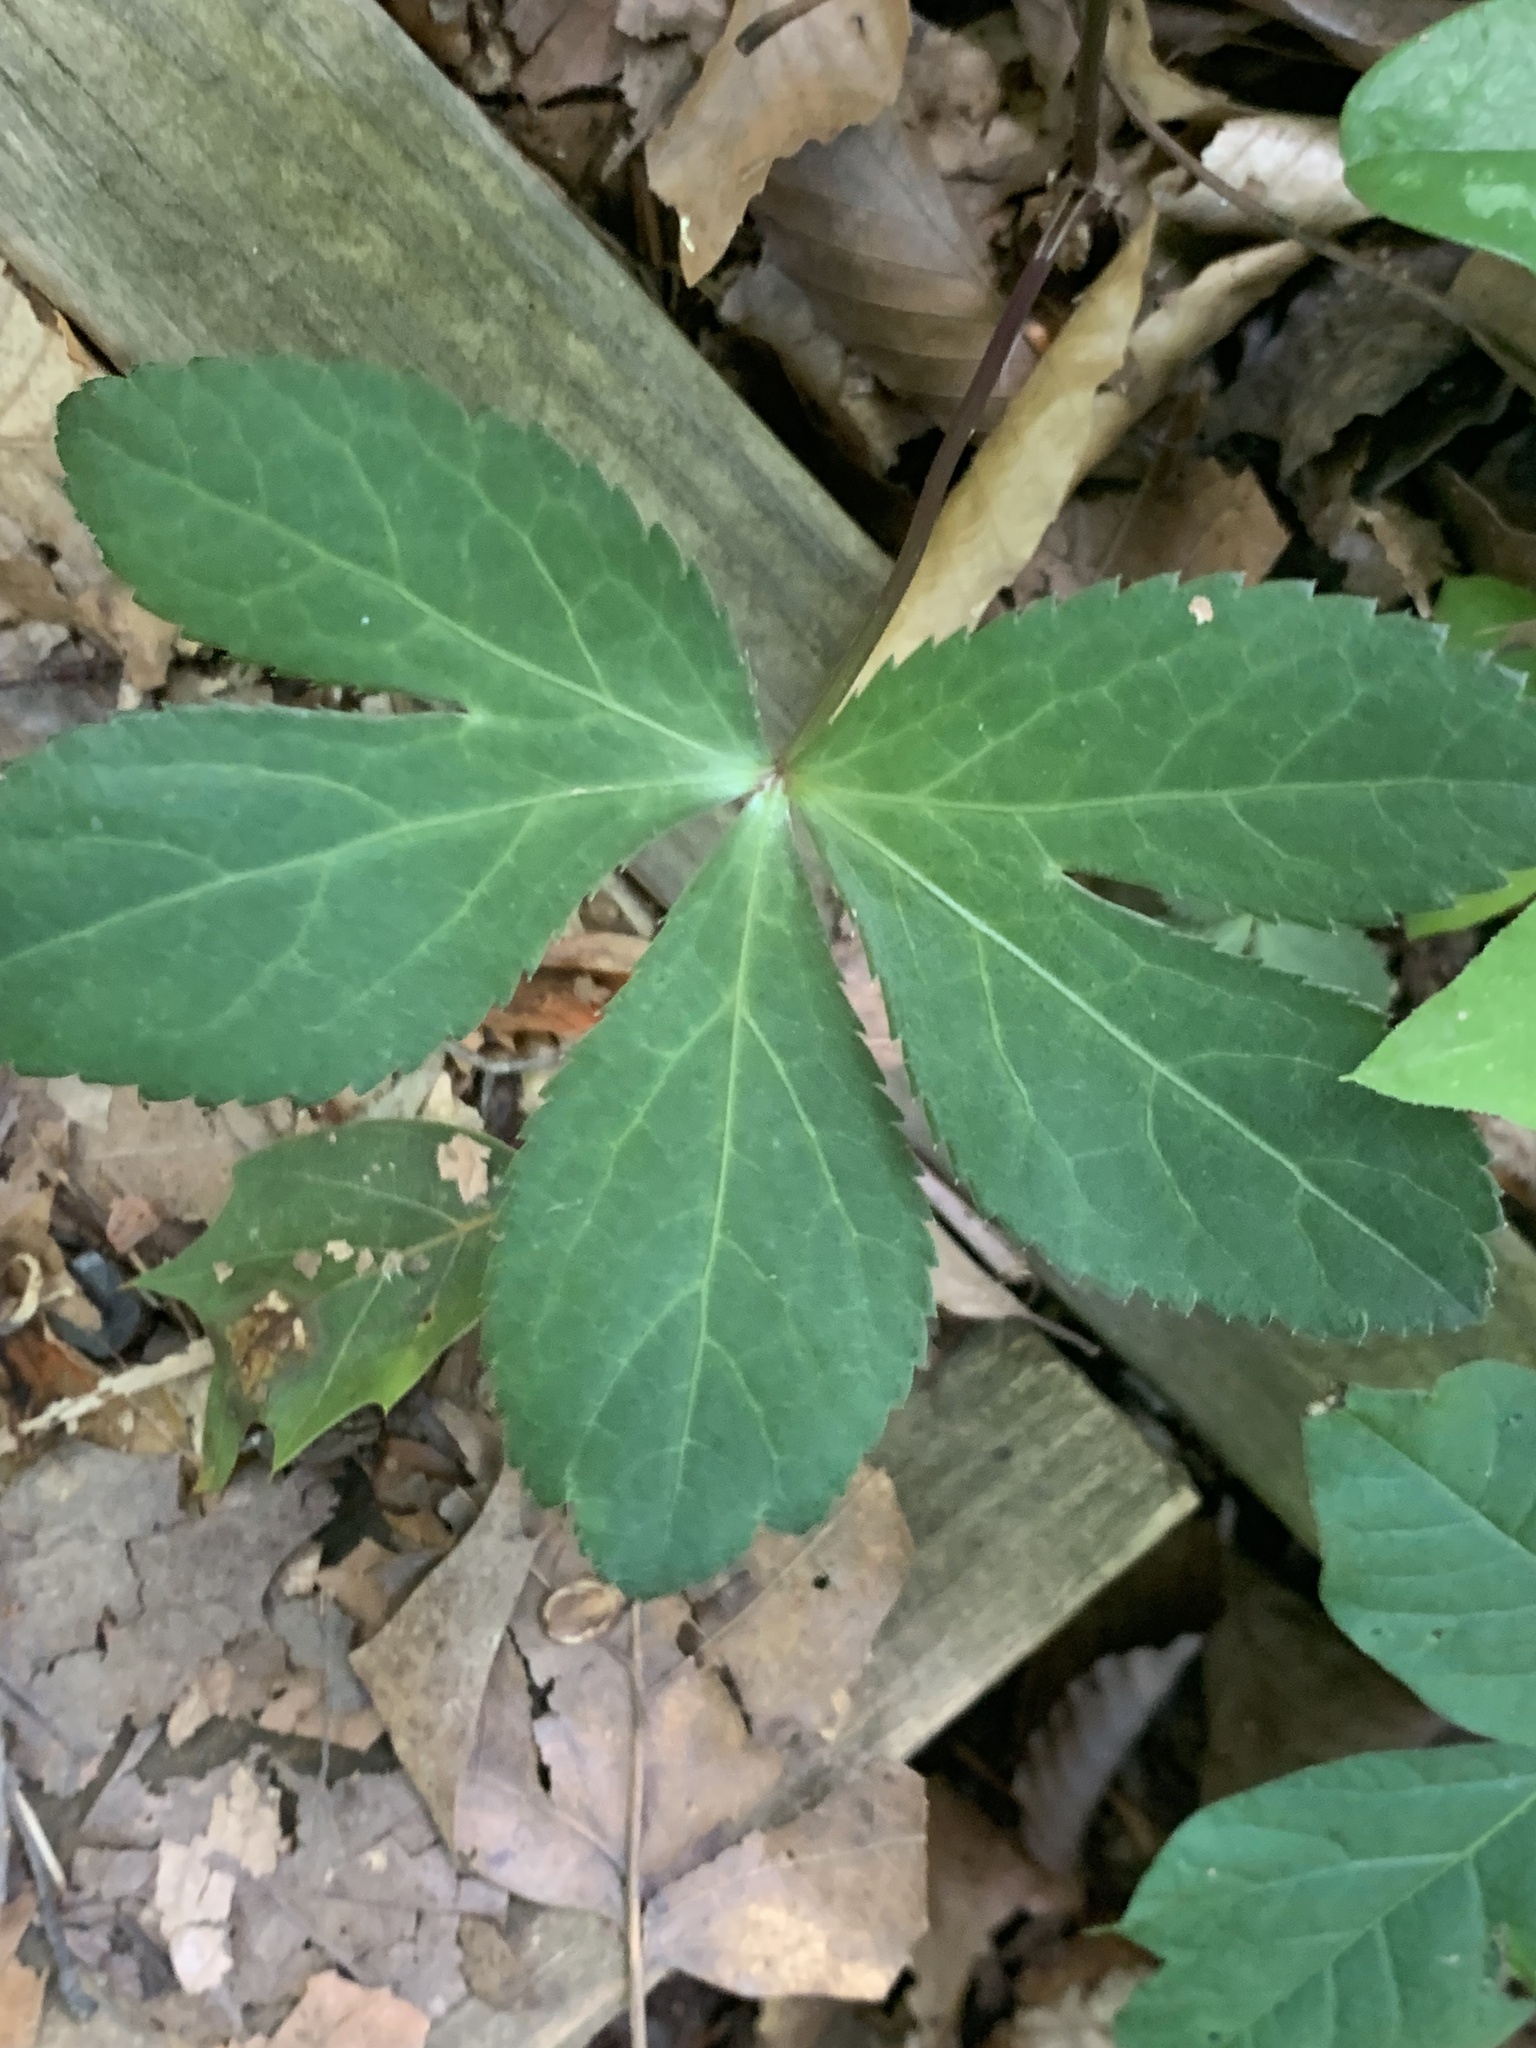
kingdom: Plantae
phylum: Tracheophyta
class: Magnoliopsida
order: Apiales
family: Apiaceae
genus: Sanicula
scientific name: Sanicula smallii
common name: Small's black snakeroot
